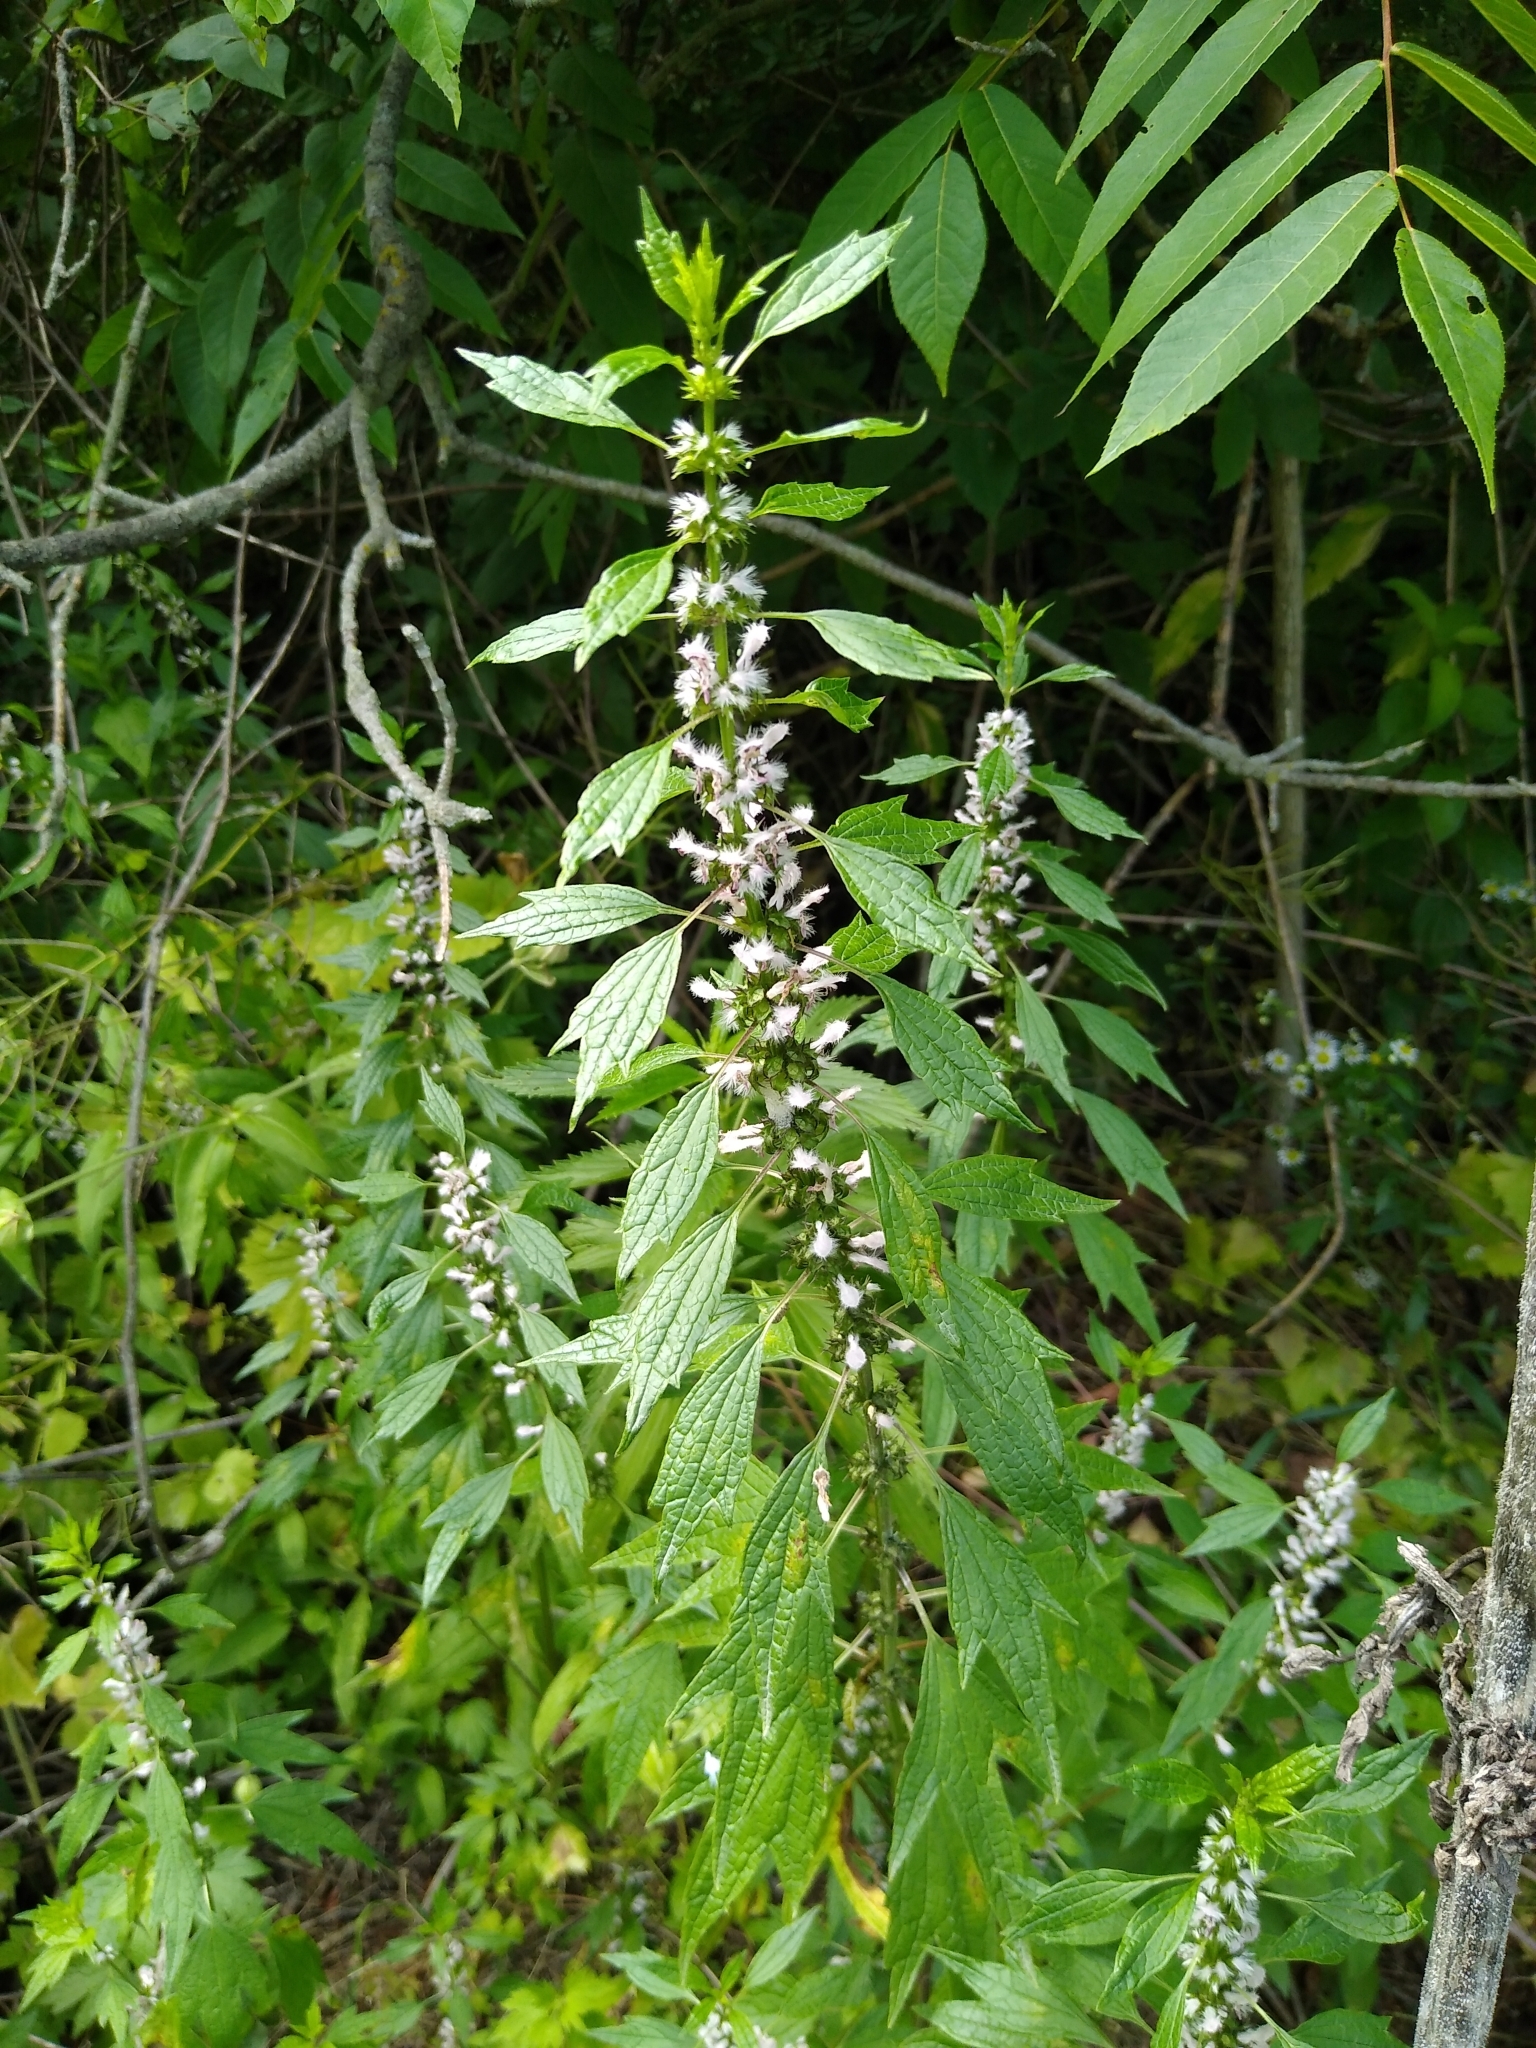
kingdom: Plantae
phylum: Tracheophyta
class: Magnoliopsida
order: Lamiales
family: Lamiaceae
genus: Leonurus
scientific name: Leonurus cardiaca
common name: Motherwort
